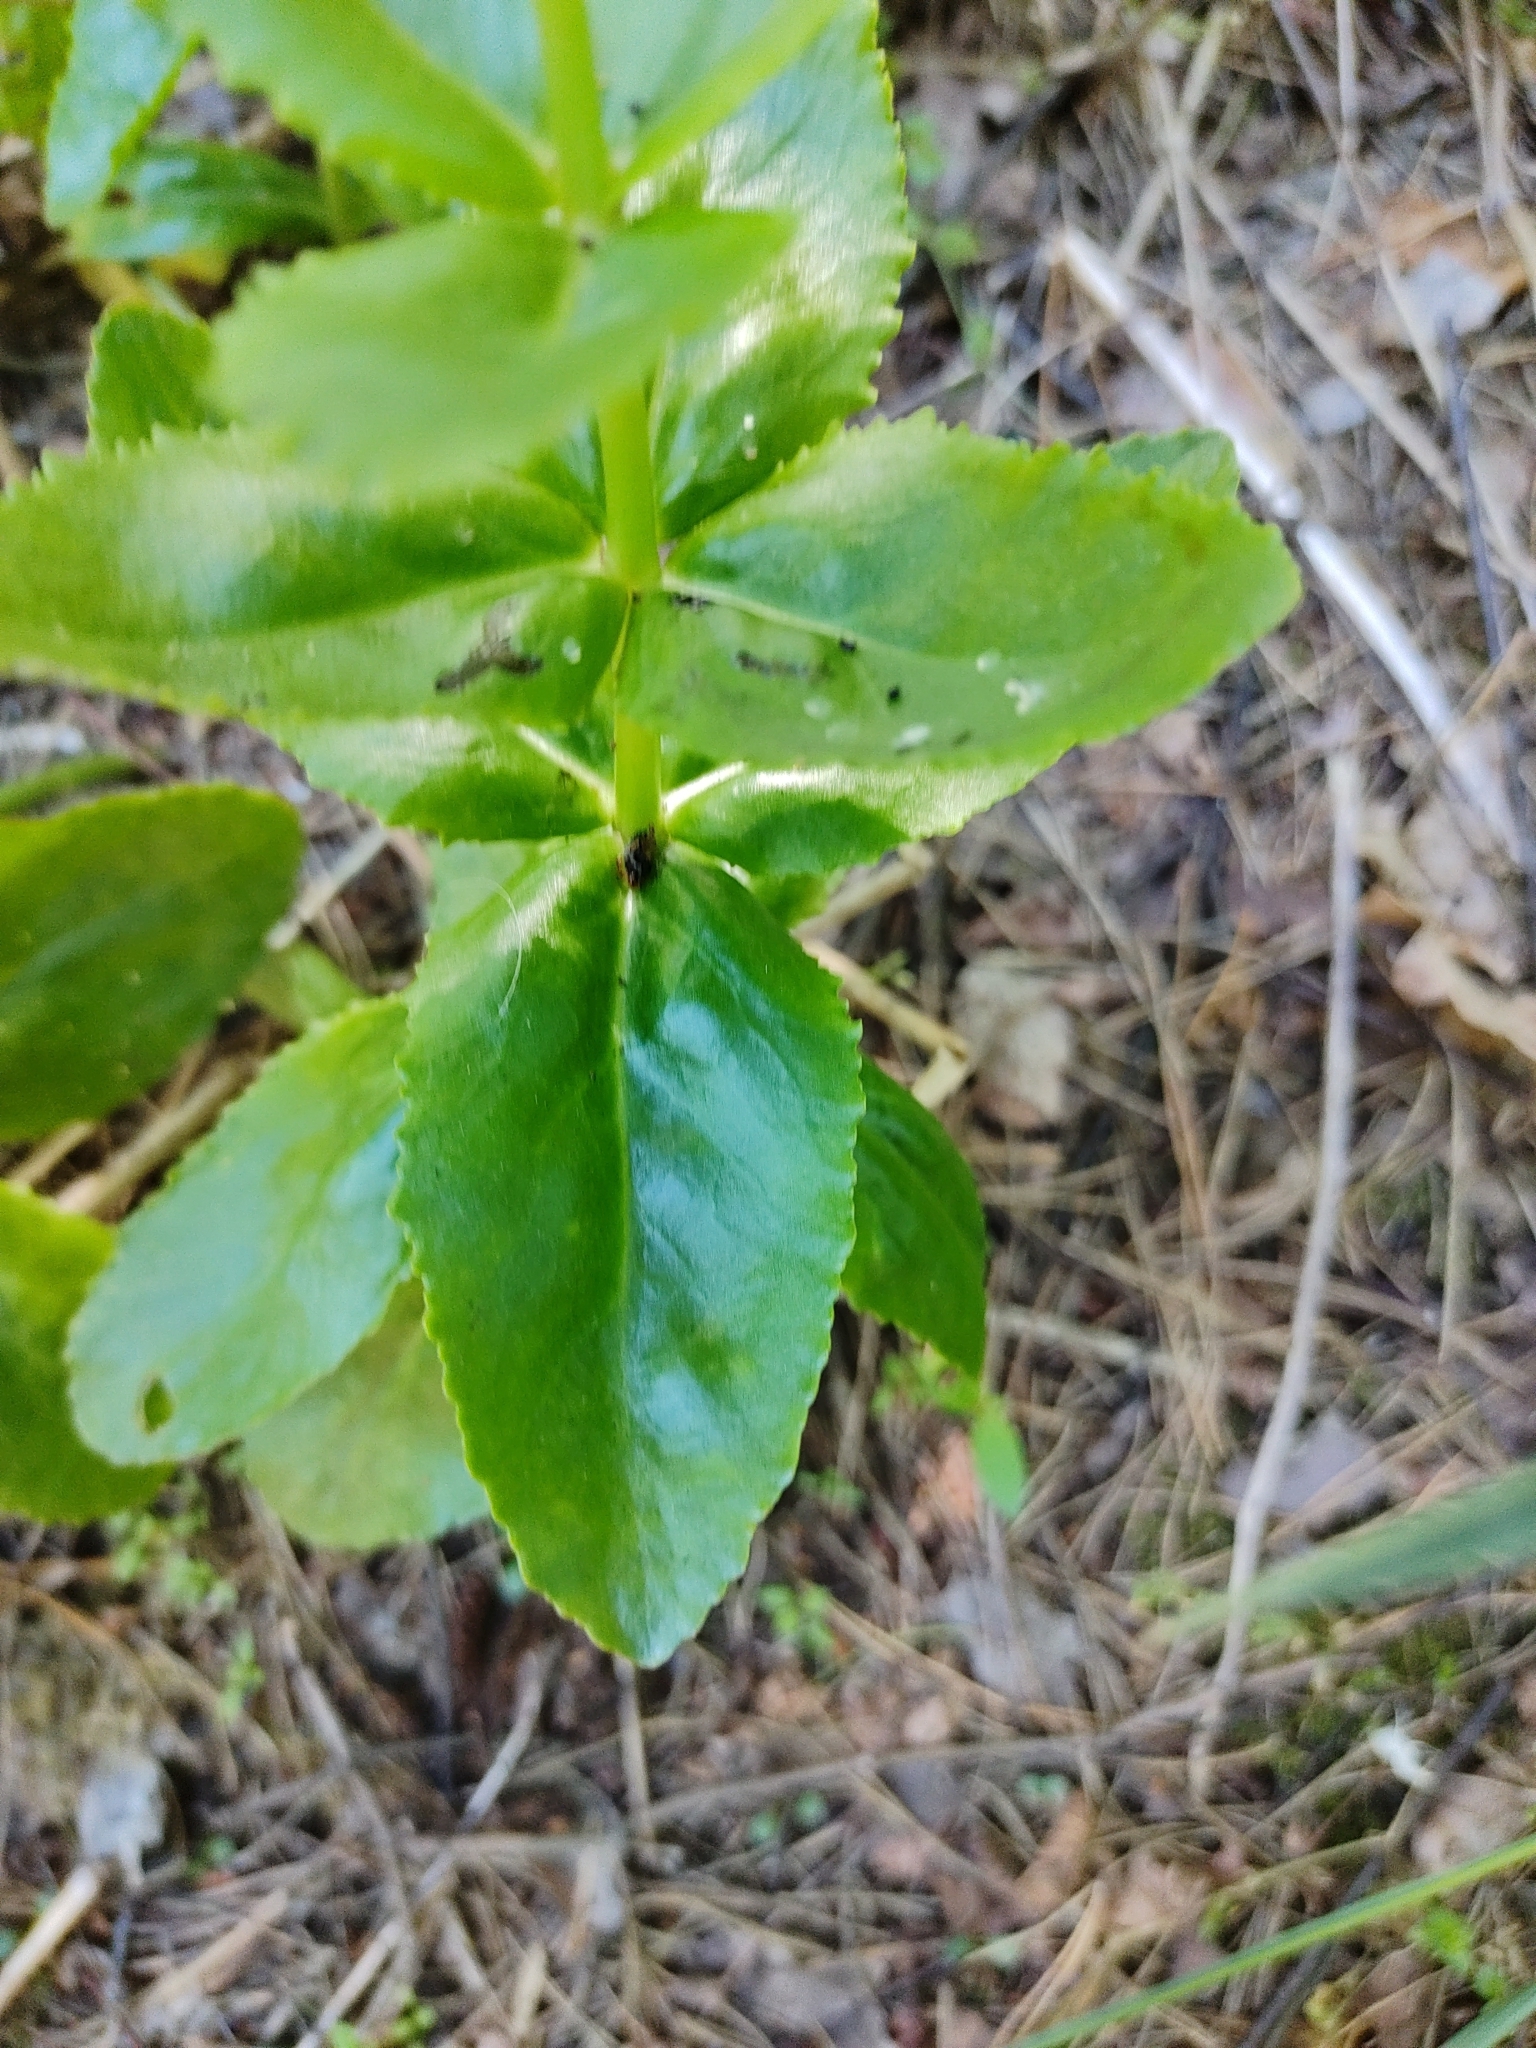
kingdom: Plantae
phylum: Tracheophyta
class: Magnoliopsida
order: Saxifragales
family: Crassulaceae
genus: Hylotelephium
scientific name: Hylotelephium maximum
